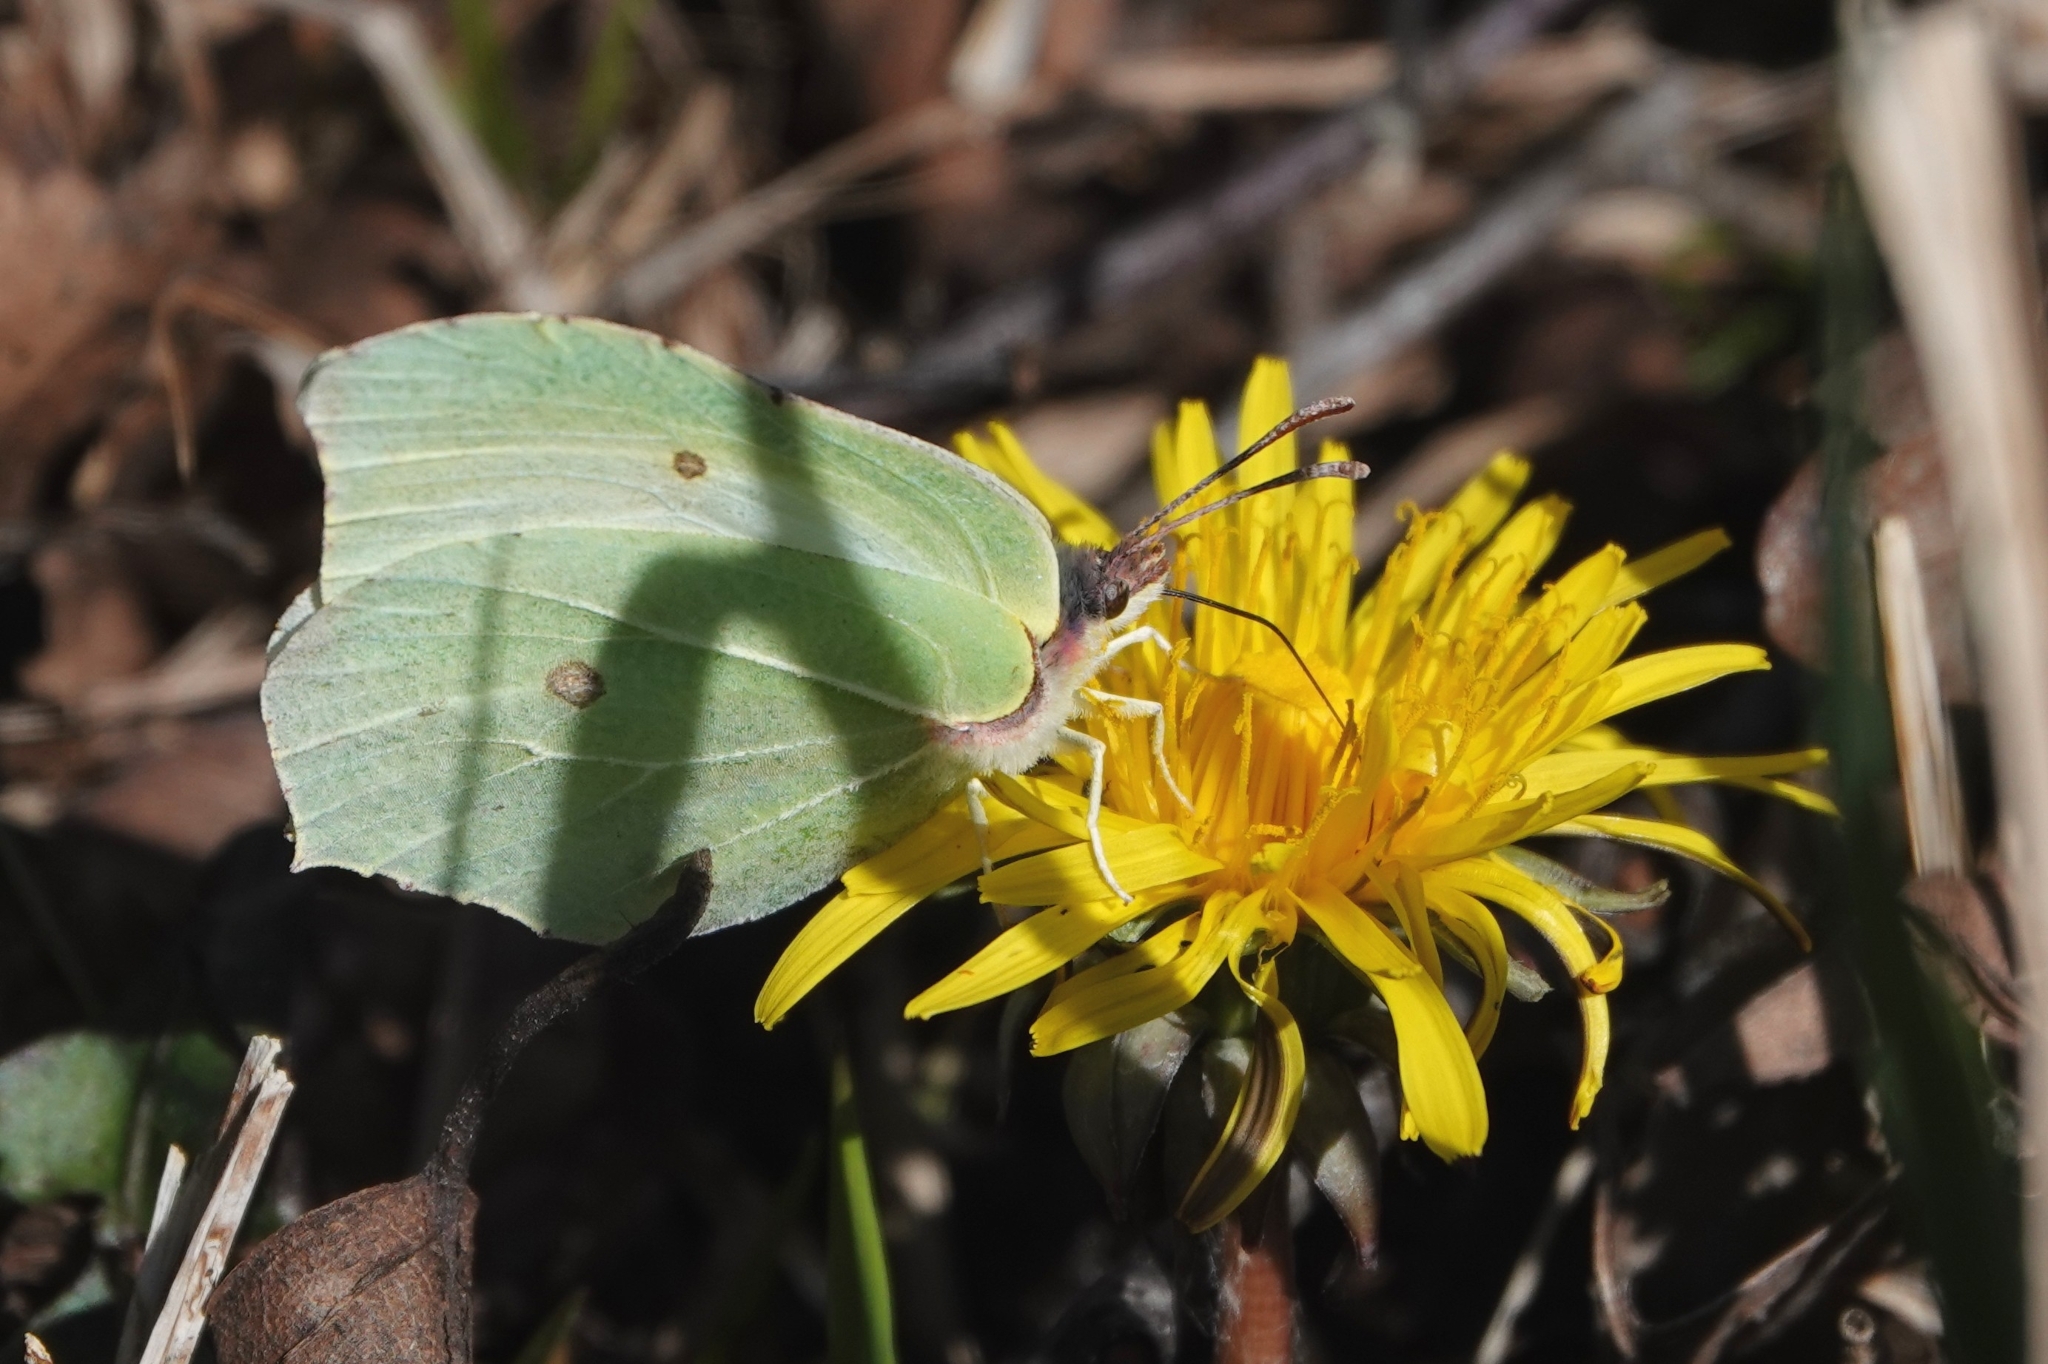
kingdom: Animalia
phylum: Arthropoda
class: Insecta
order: Lepidoptera
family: Pieridae
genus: Gonepteryx
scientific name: Gonepteryx rhamni
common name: Brimstone
